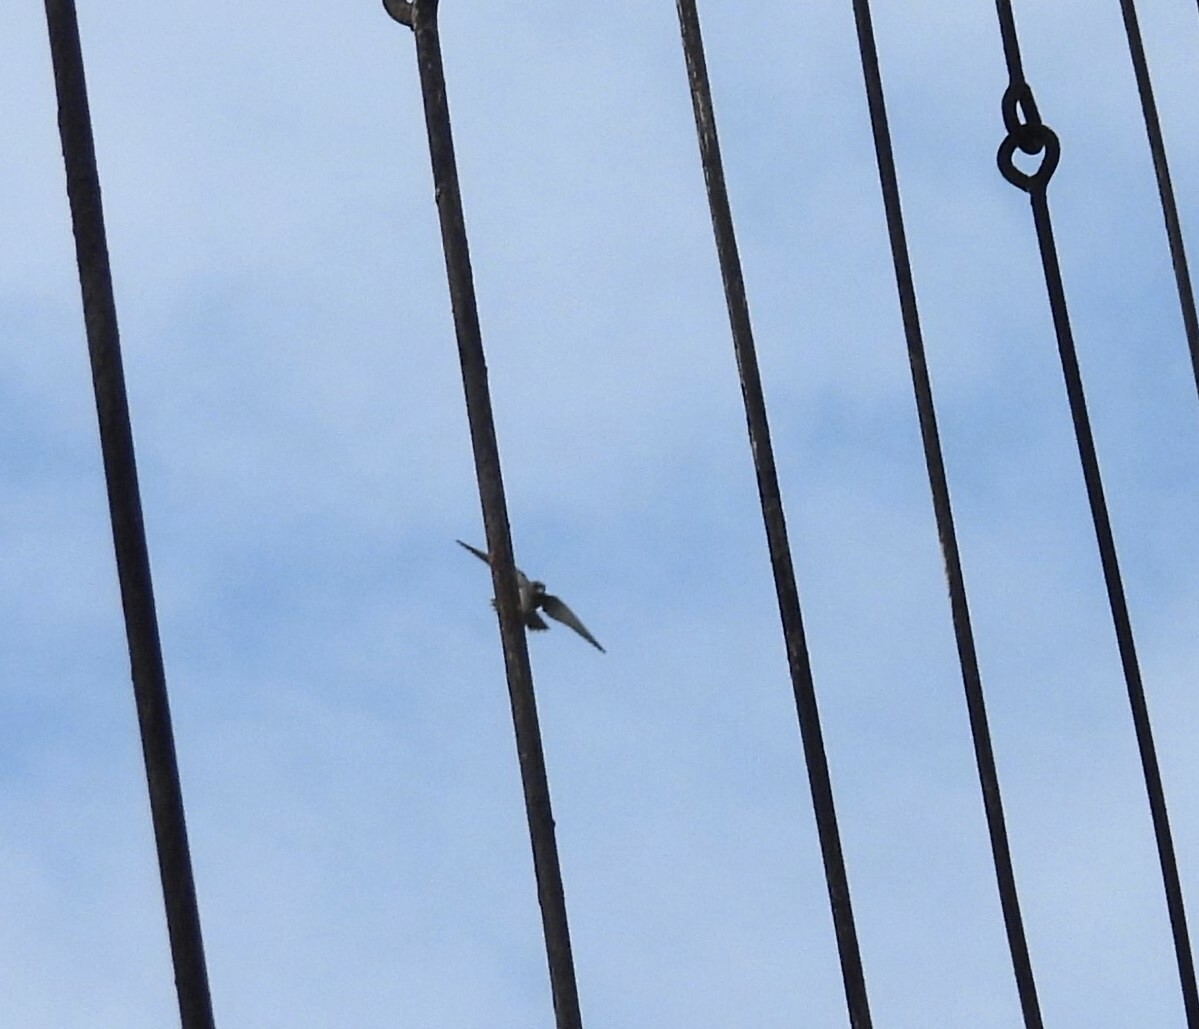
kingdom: Animalia
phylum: Chordata
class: Aves
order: Passeriformes
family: Artamidae
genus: Artamus
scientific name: Artamus fuscus
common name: Ashy woodswallow
